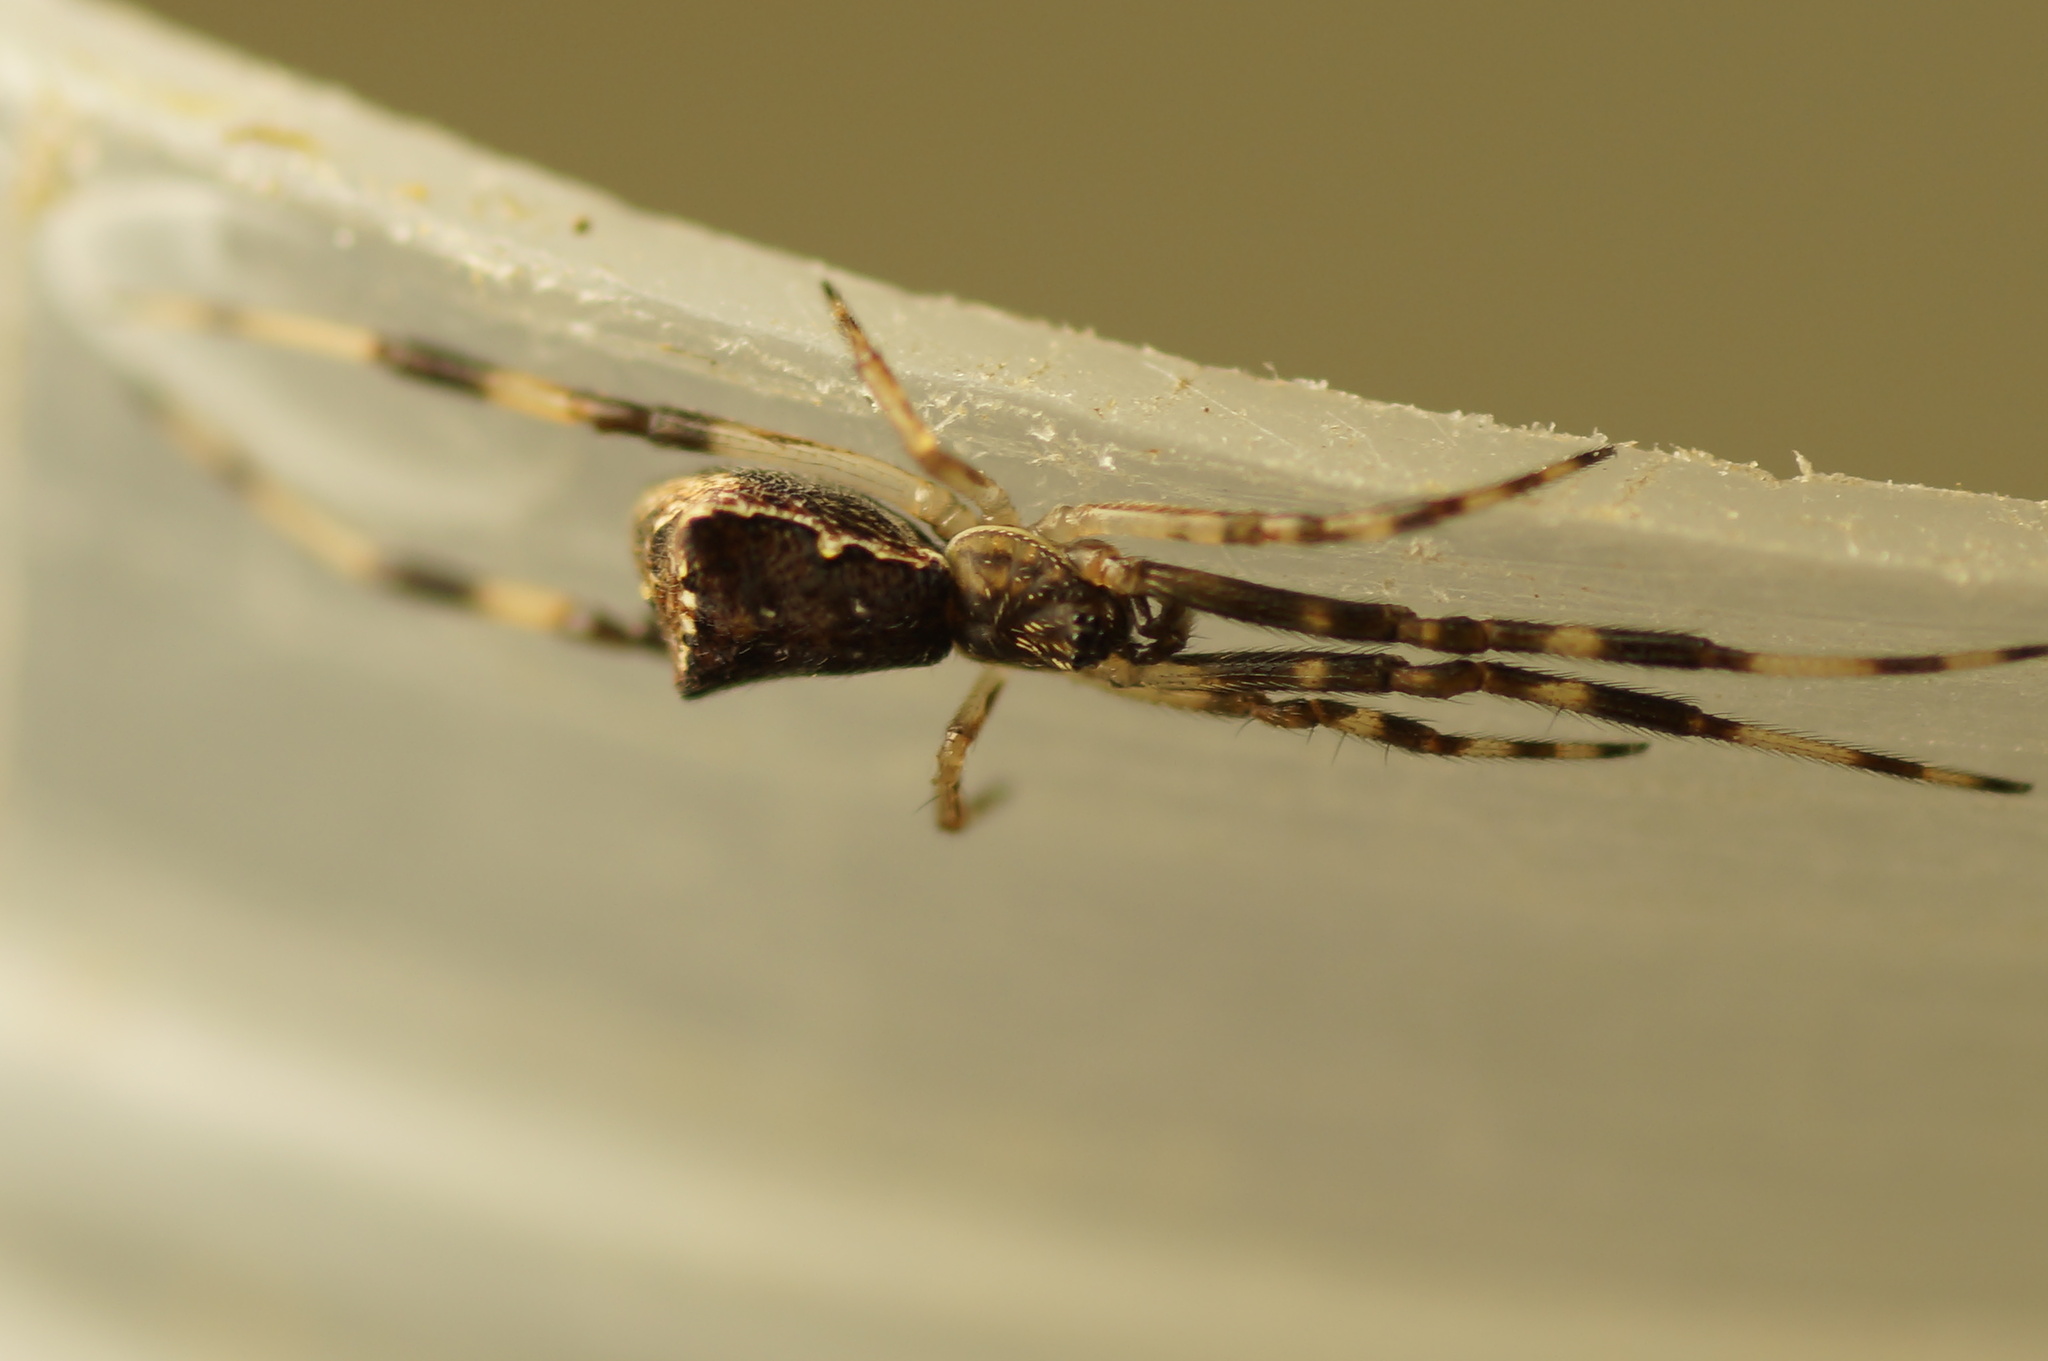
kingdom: Animalia
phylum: Arthropoda
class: Arachnida
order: Araneae
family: Theridiidae
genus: Episinus
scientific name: Episinus angulatus
